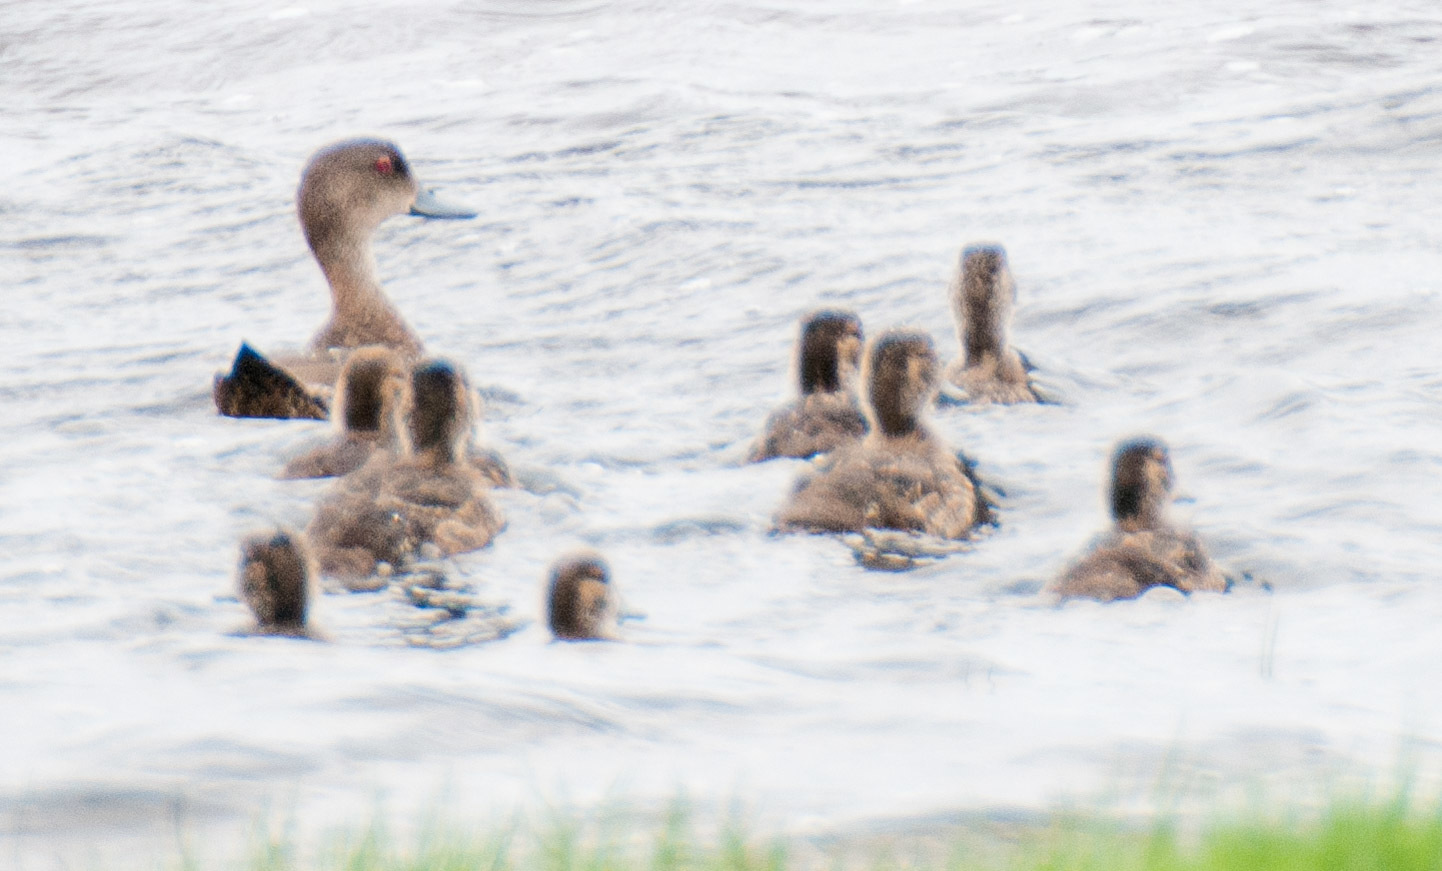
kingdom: Animalia
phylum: Chordata
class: Aves
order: Anseriformes
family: Anatidae
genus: Anas
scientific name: Anas castanea
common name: Chestnut teal
